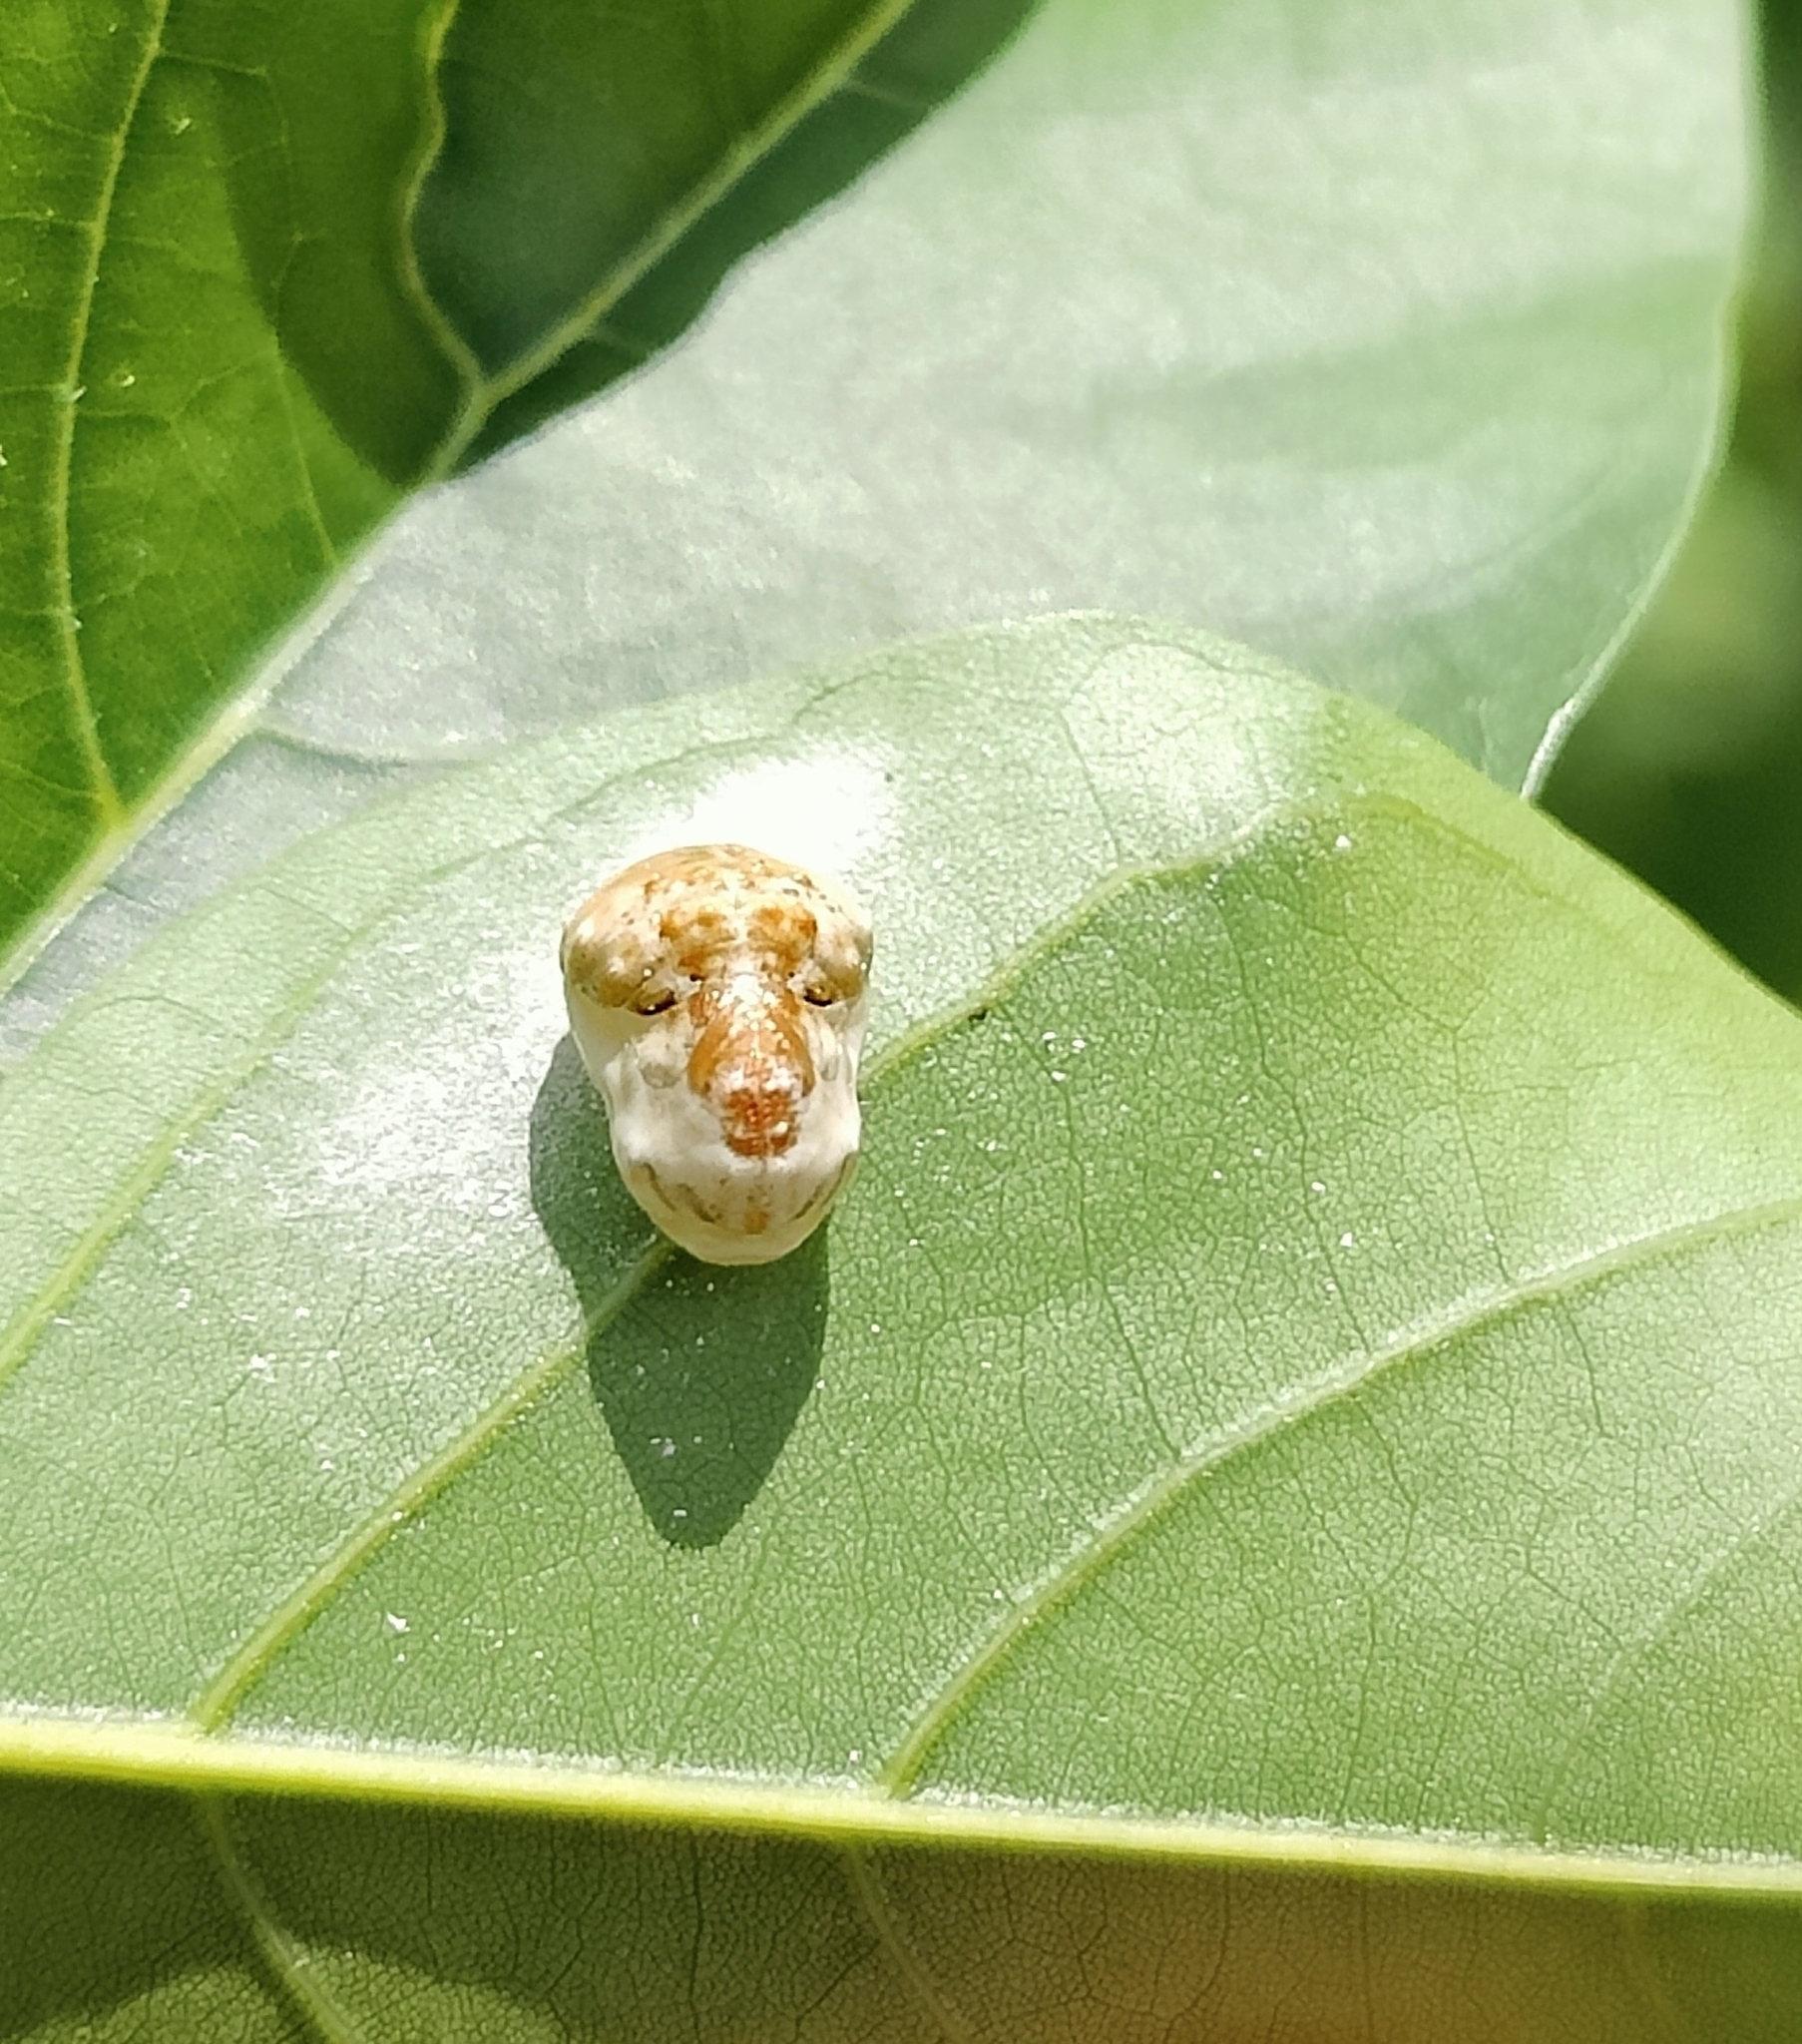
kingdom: Animalia
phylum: Arthropoda
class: Insecta
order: Lepidoptera
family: Lycaenidae
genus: Spalgis
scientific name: Spalgis epius
